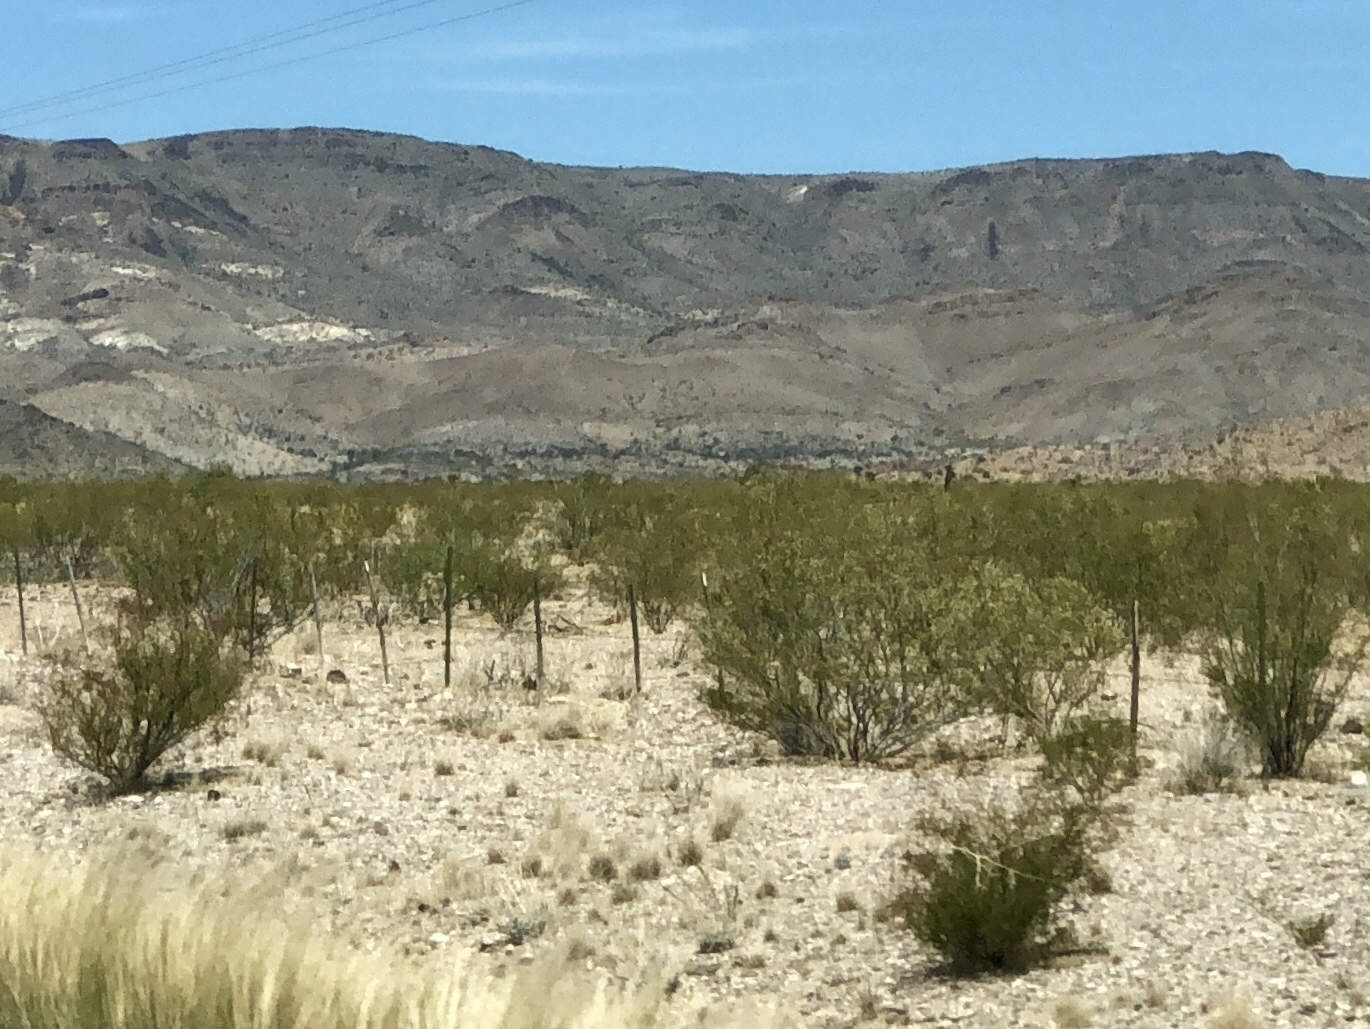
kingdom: Plantae
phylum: Tracheophyta
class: Magnoliopsida
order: Zygophyllales
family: Zygophyllaceae
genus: Larrea
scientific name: Larrea tridentata
